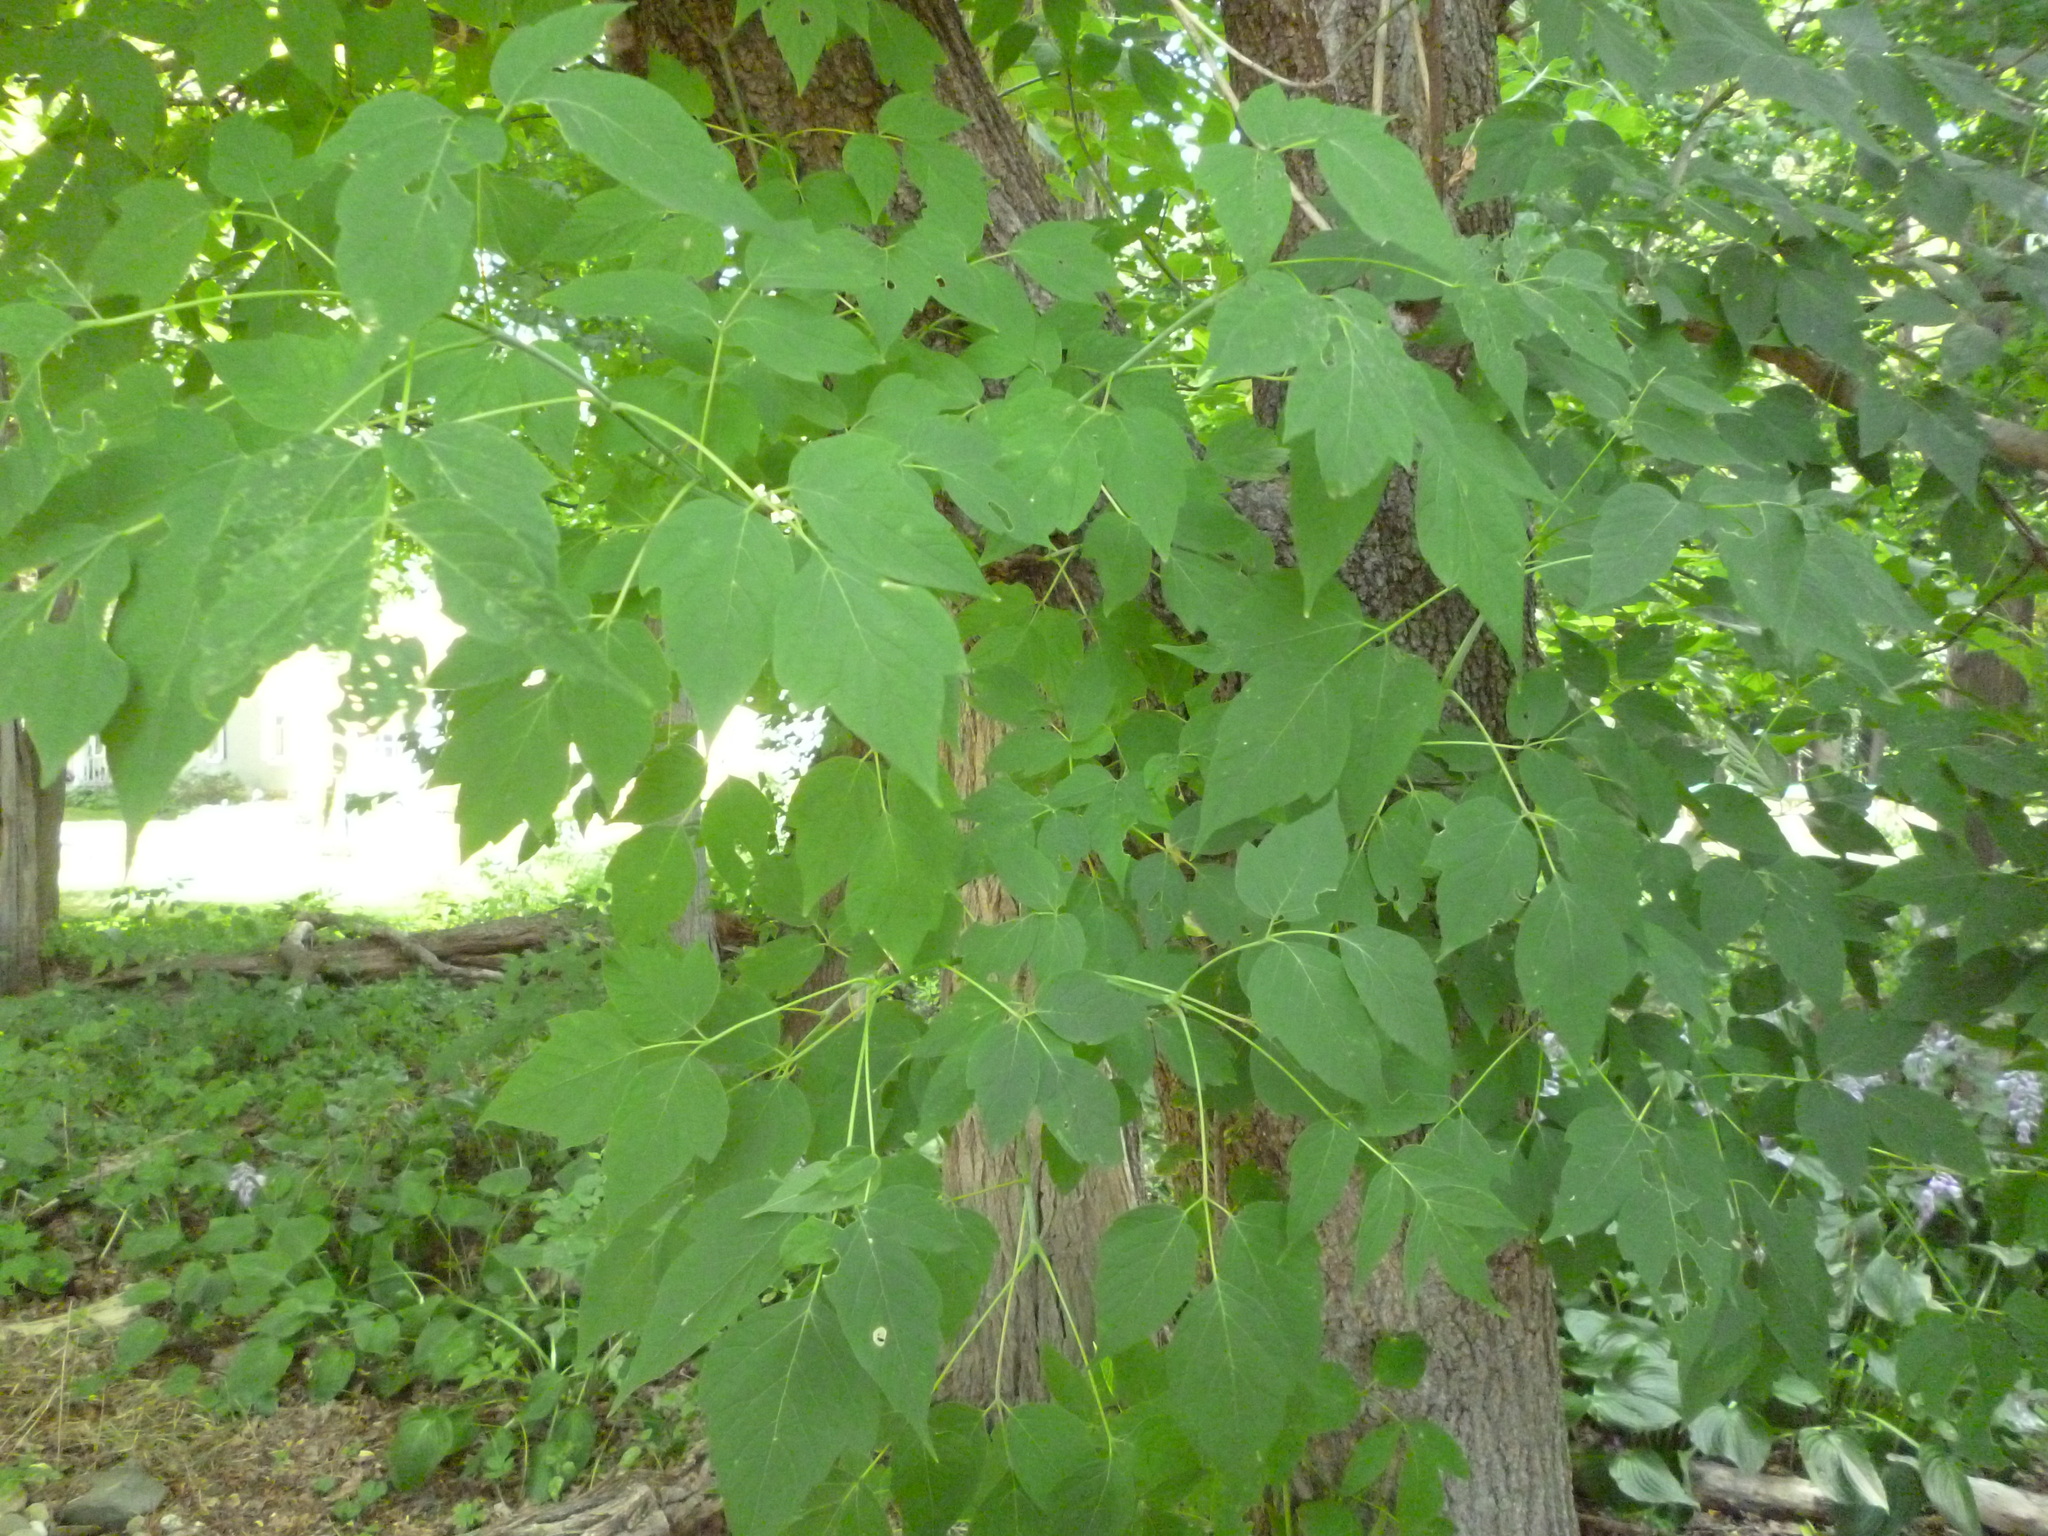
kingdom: Plantae
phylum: Tracheophyta
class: Magnoliopsida
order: Sapindales
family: Sapindaceae
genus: Acer
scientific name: Acer negundo
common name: Ashleaf maple
